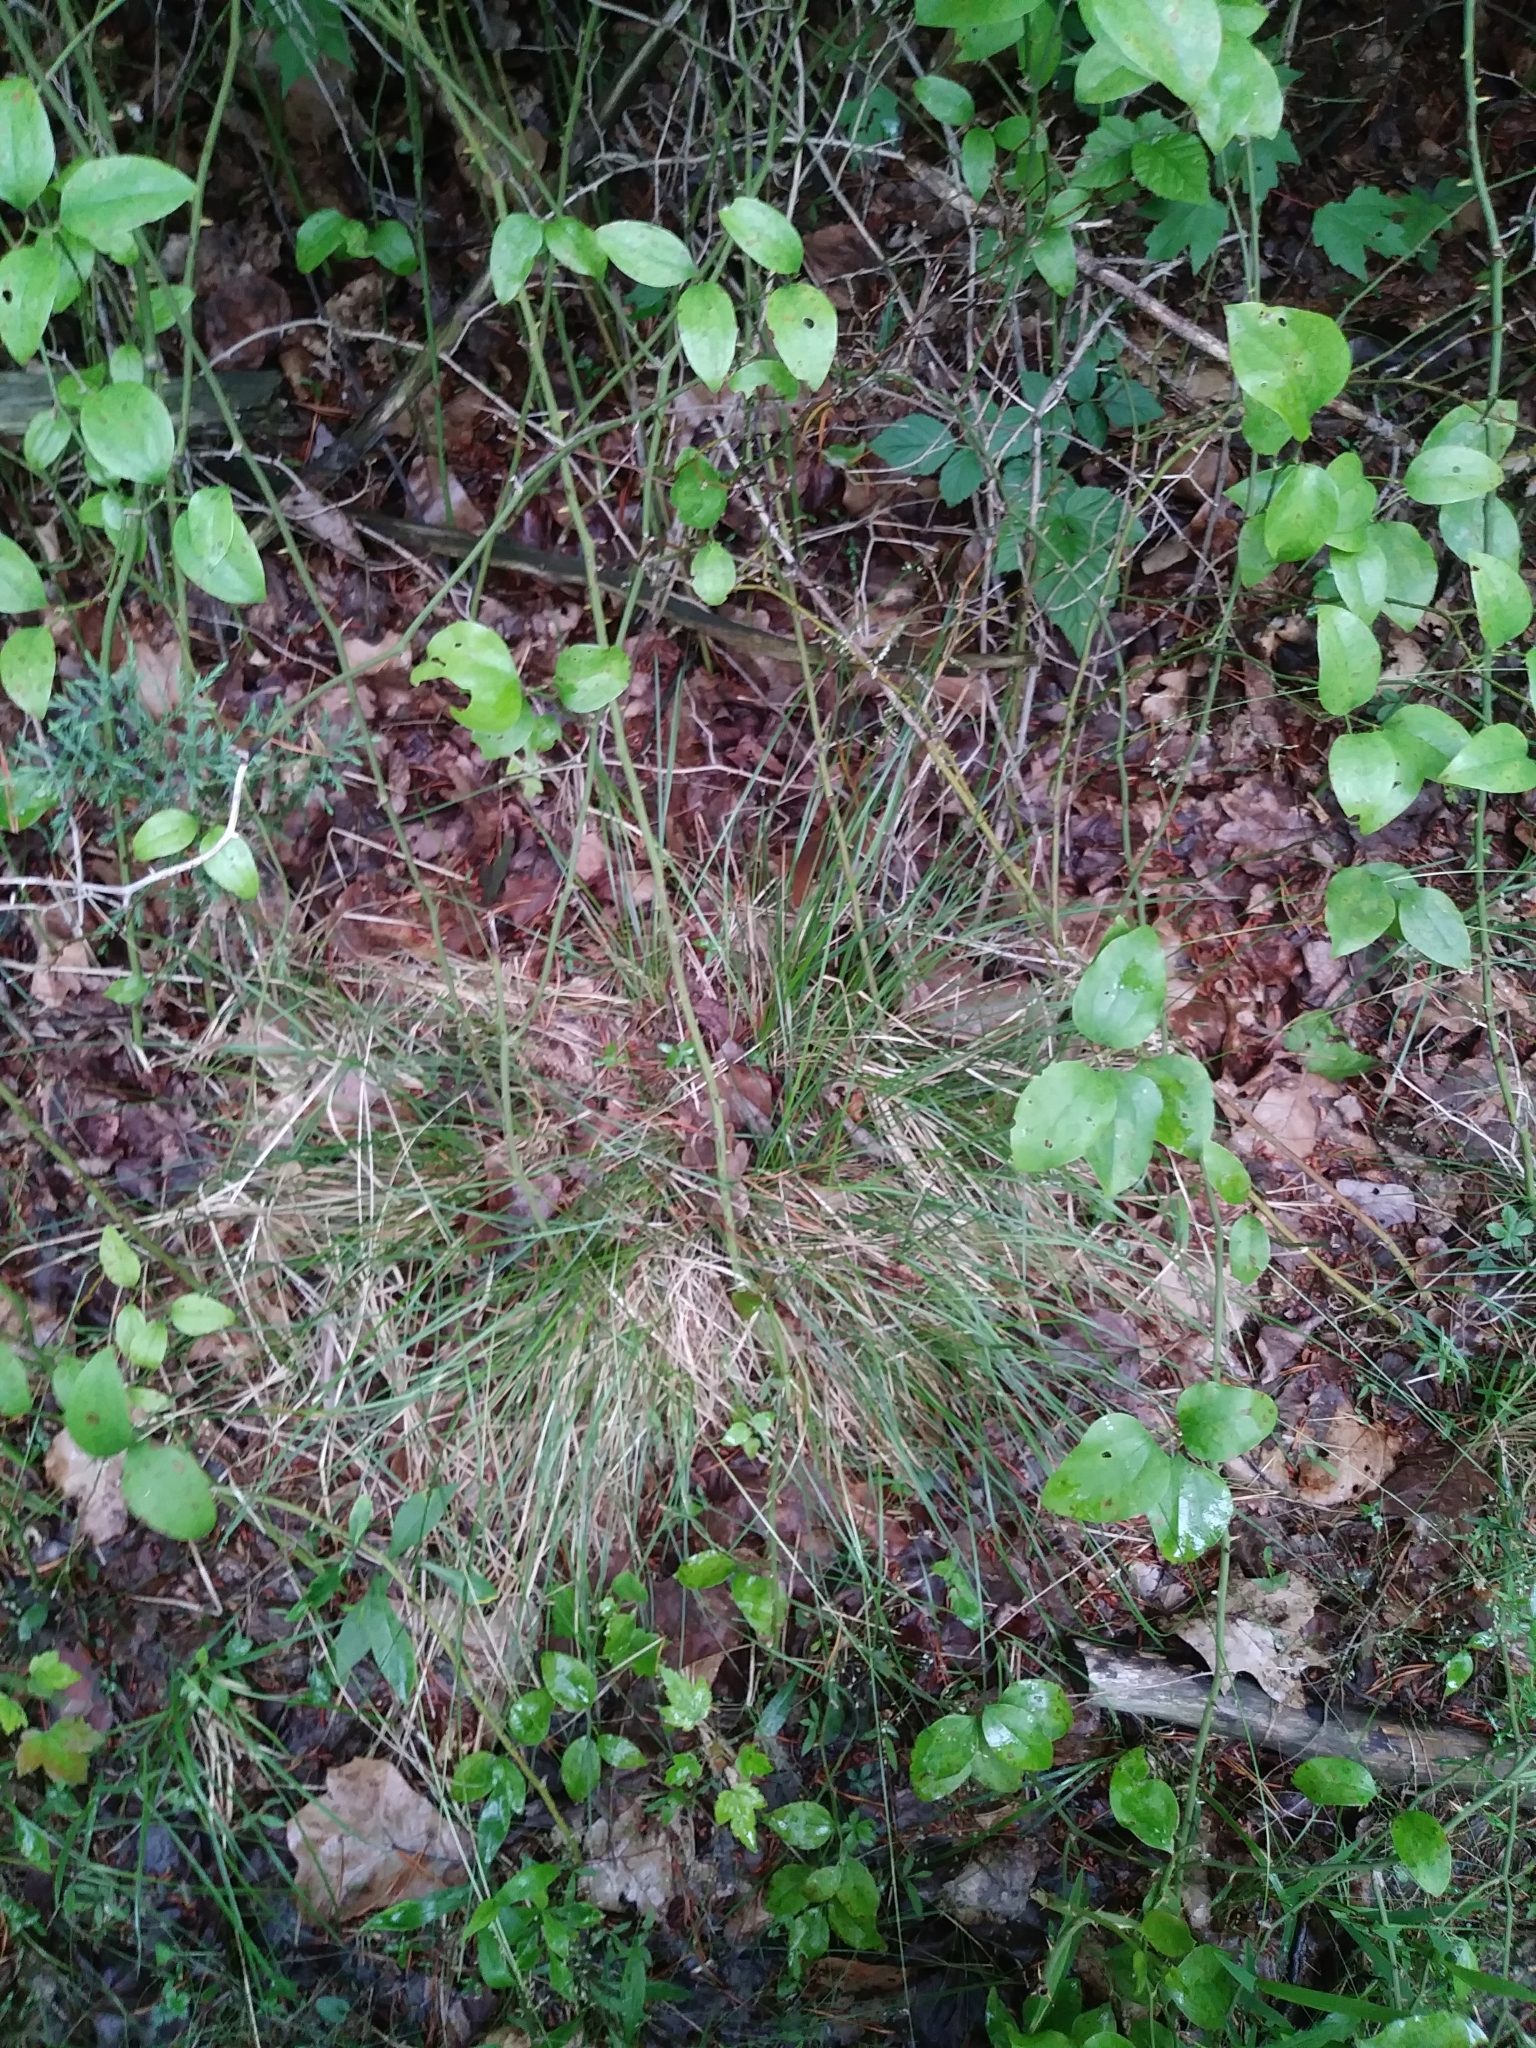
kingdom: Plantae
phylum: Tracheophyta
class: Liliopsida
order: Poales
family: Poaceae
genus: Sporobolus
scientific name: Sporobolus heterolepis
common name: Prairie dropseed
